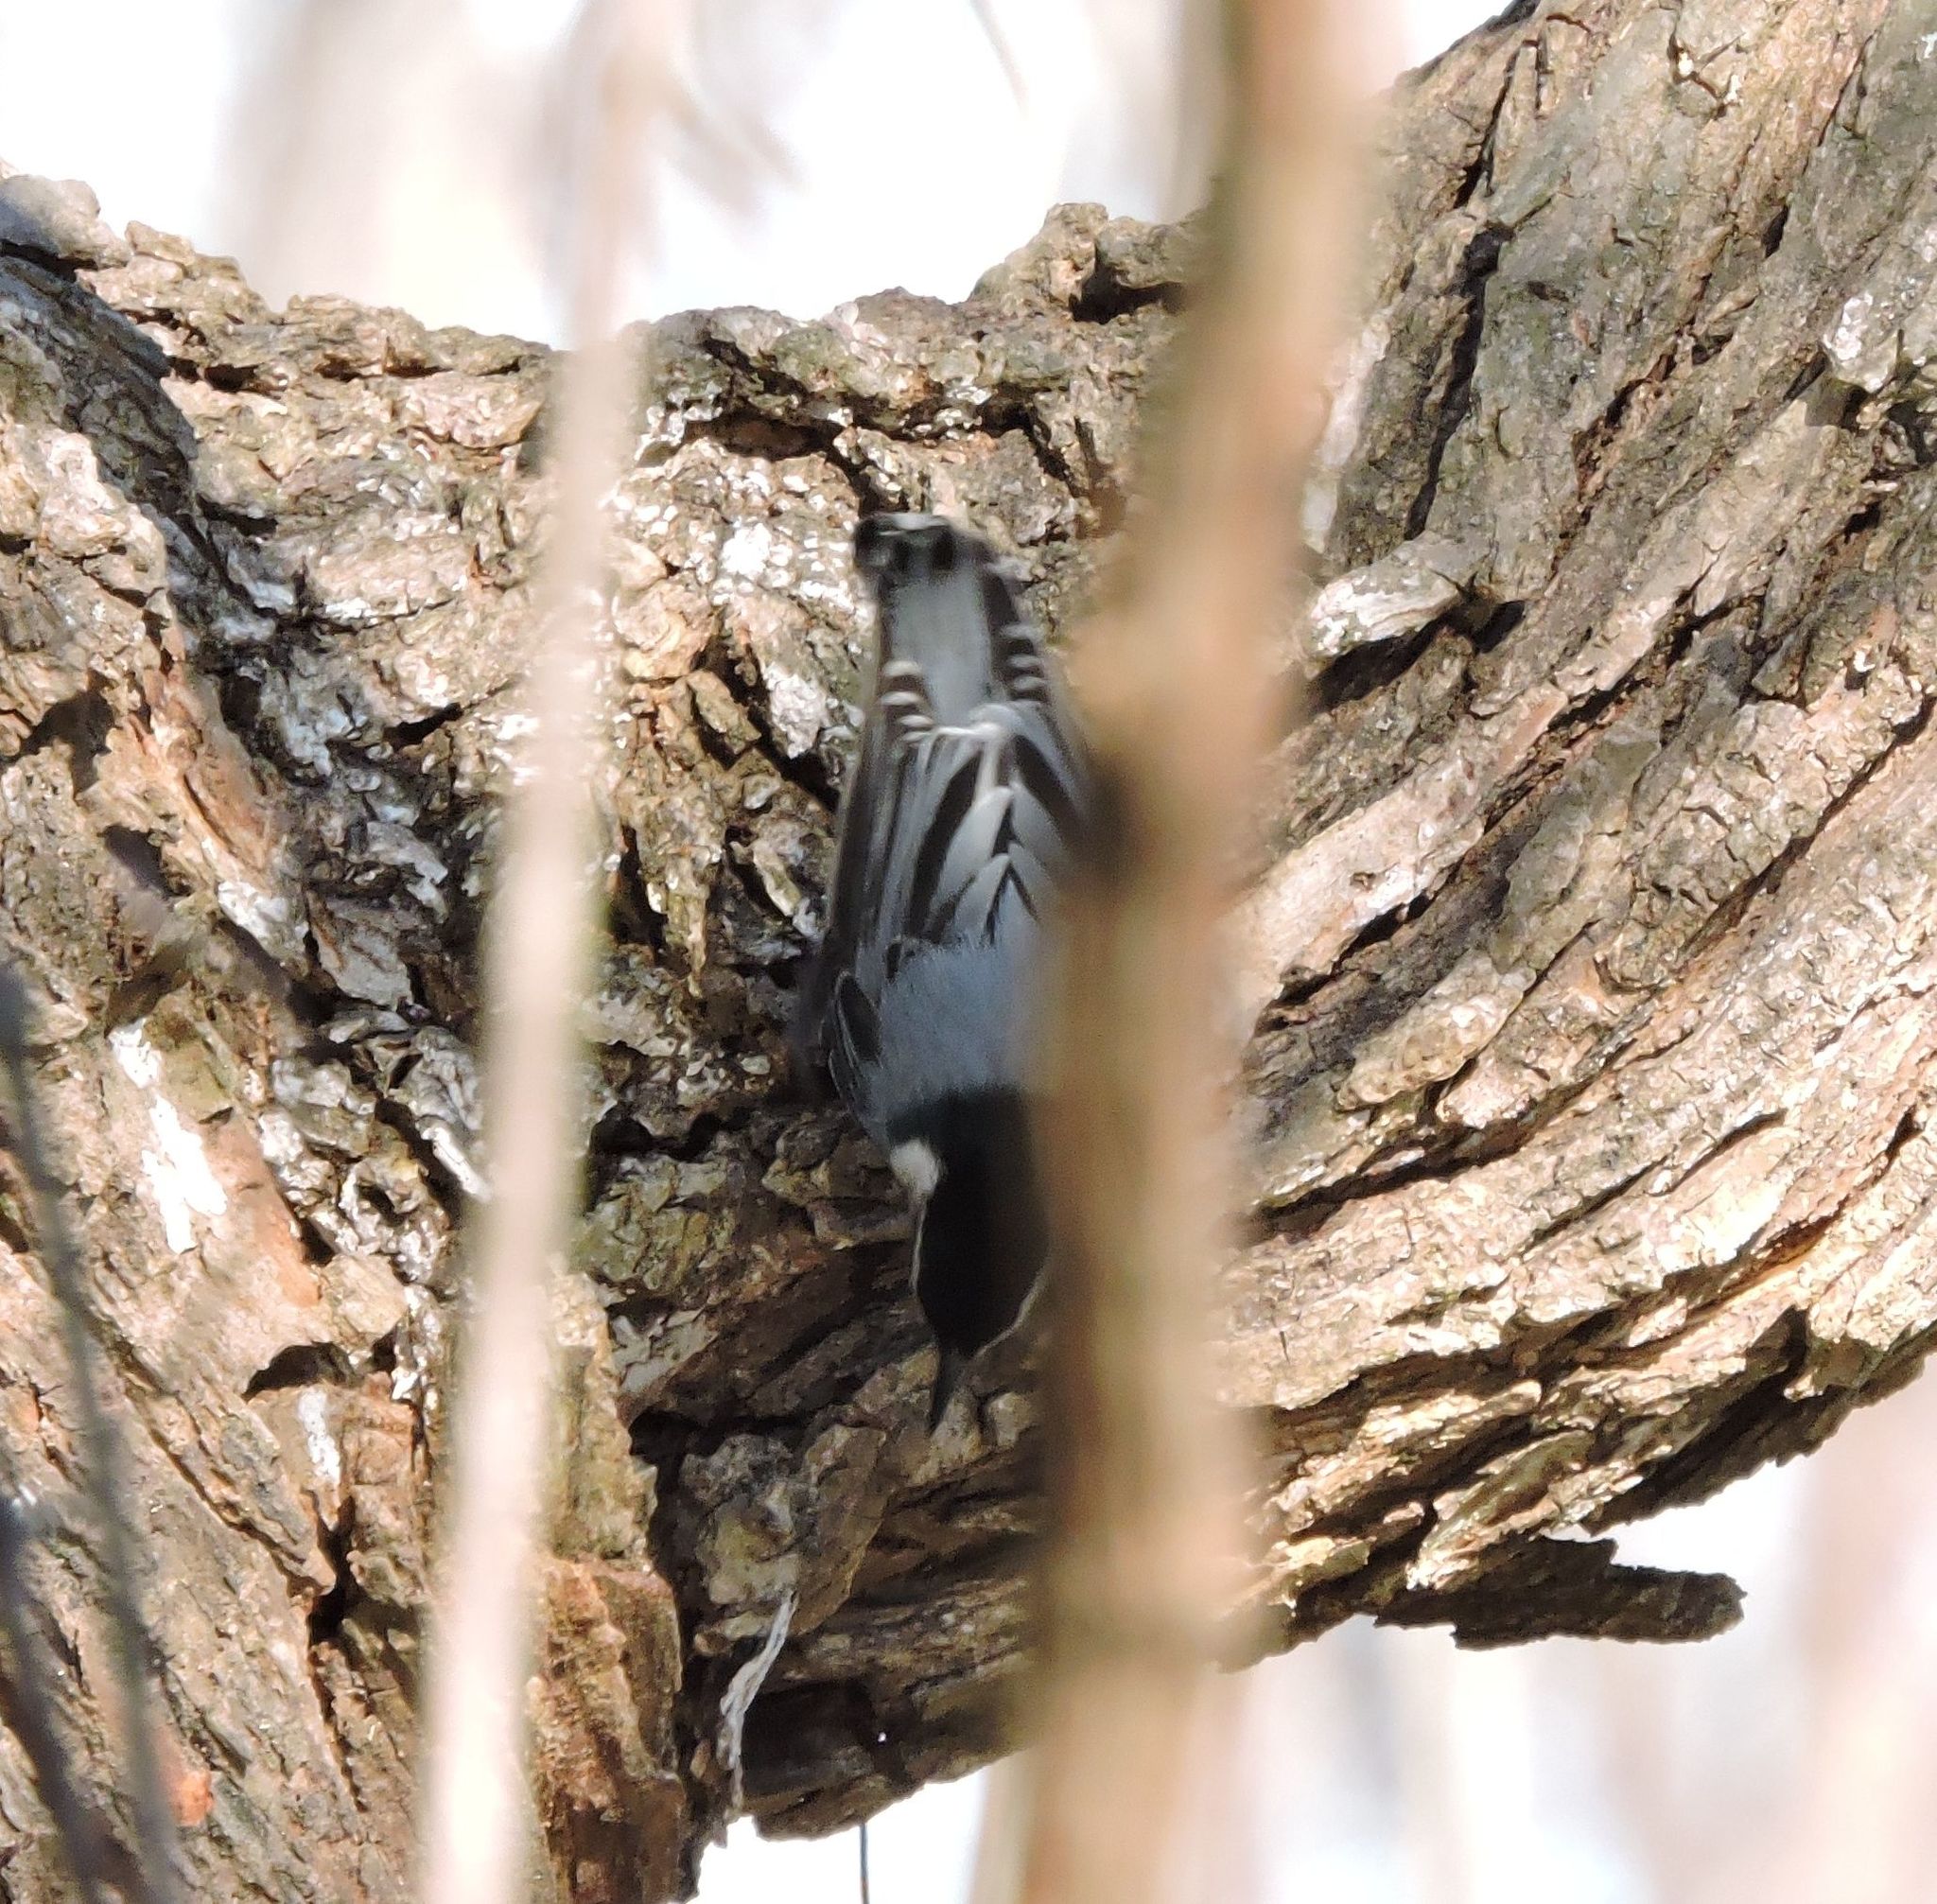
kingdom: Animalia
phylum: Chordata
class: Aves
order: Passeriformes
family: Sittidae
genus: Sitta
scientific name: Sitta carolinensis
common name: White-breasted nuthatch
